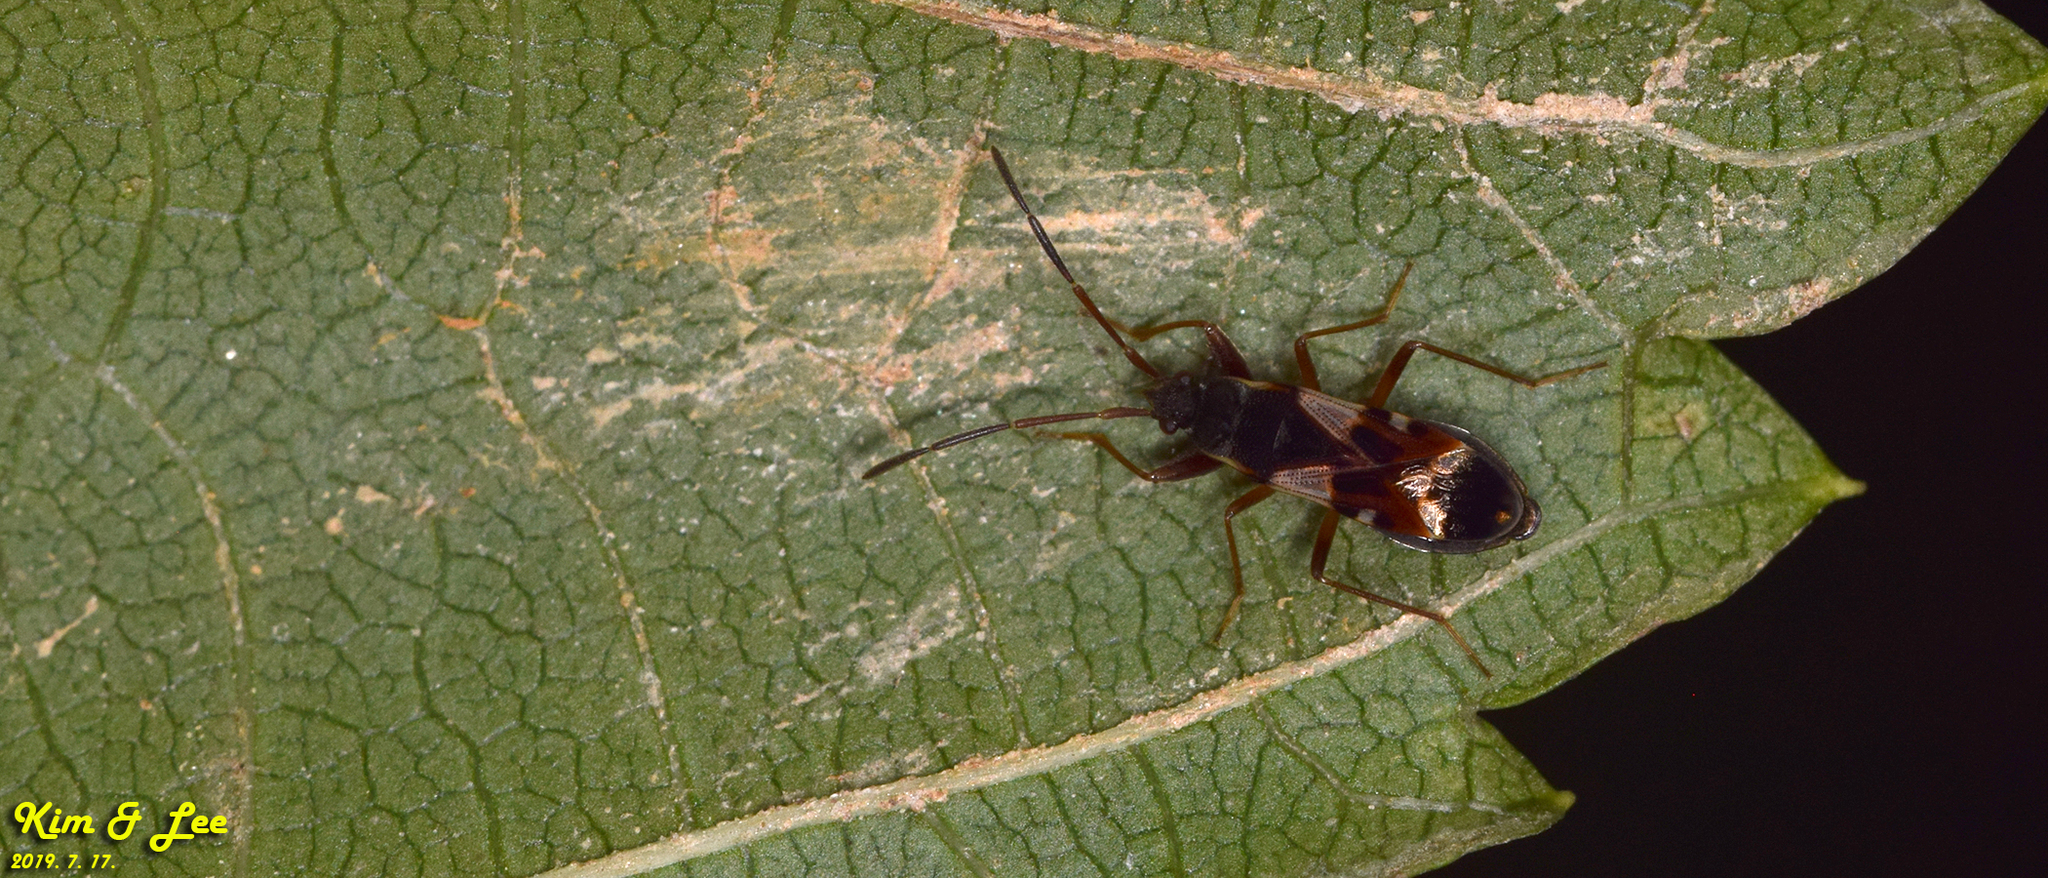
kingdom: Animalia
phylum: Arthropoda
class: Insecta
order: Hemiptera
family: Rhyparochromidae
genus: Paradieuches
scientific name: Paradieuches dissimilis
